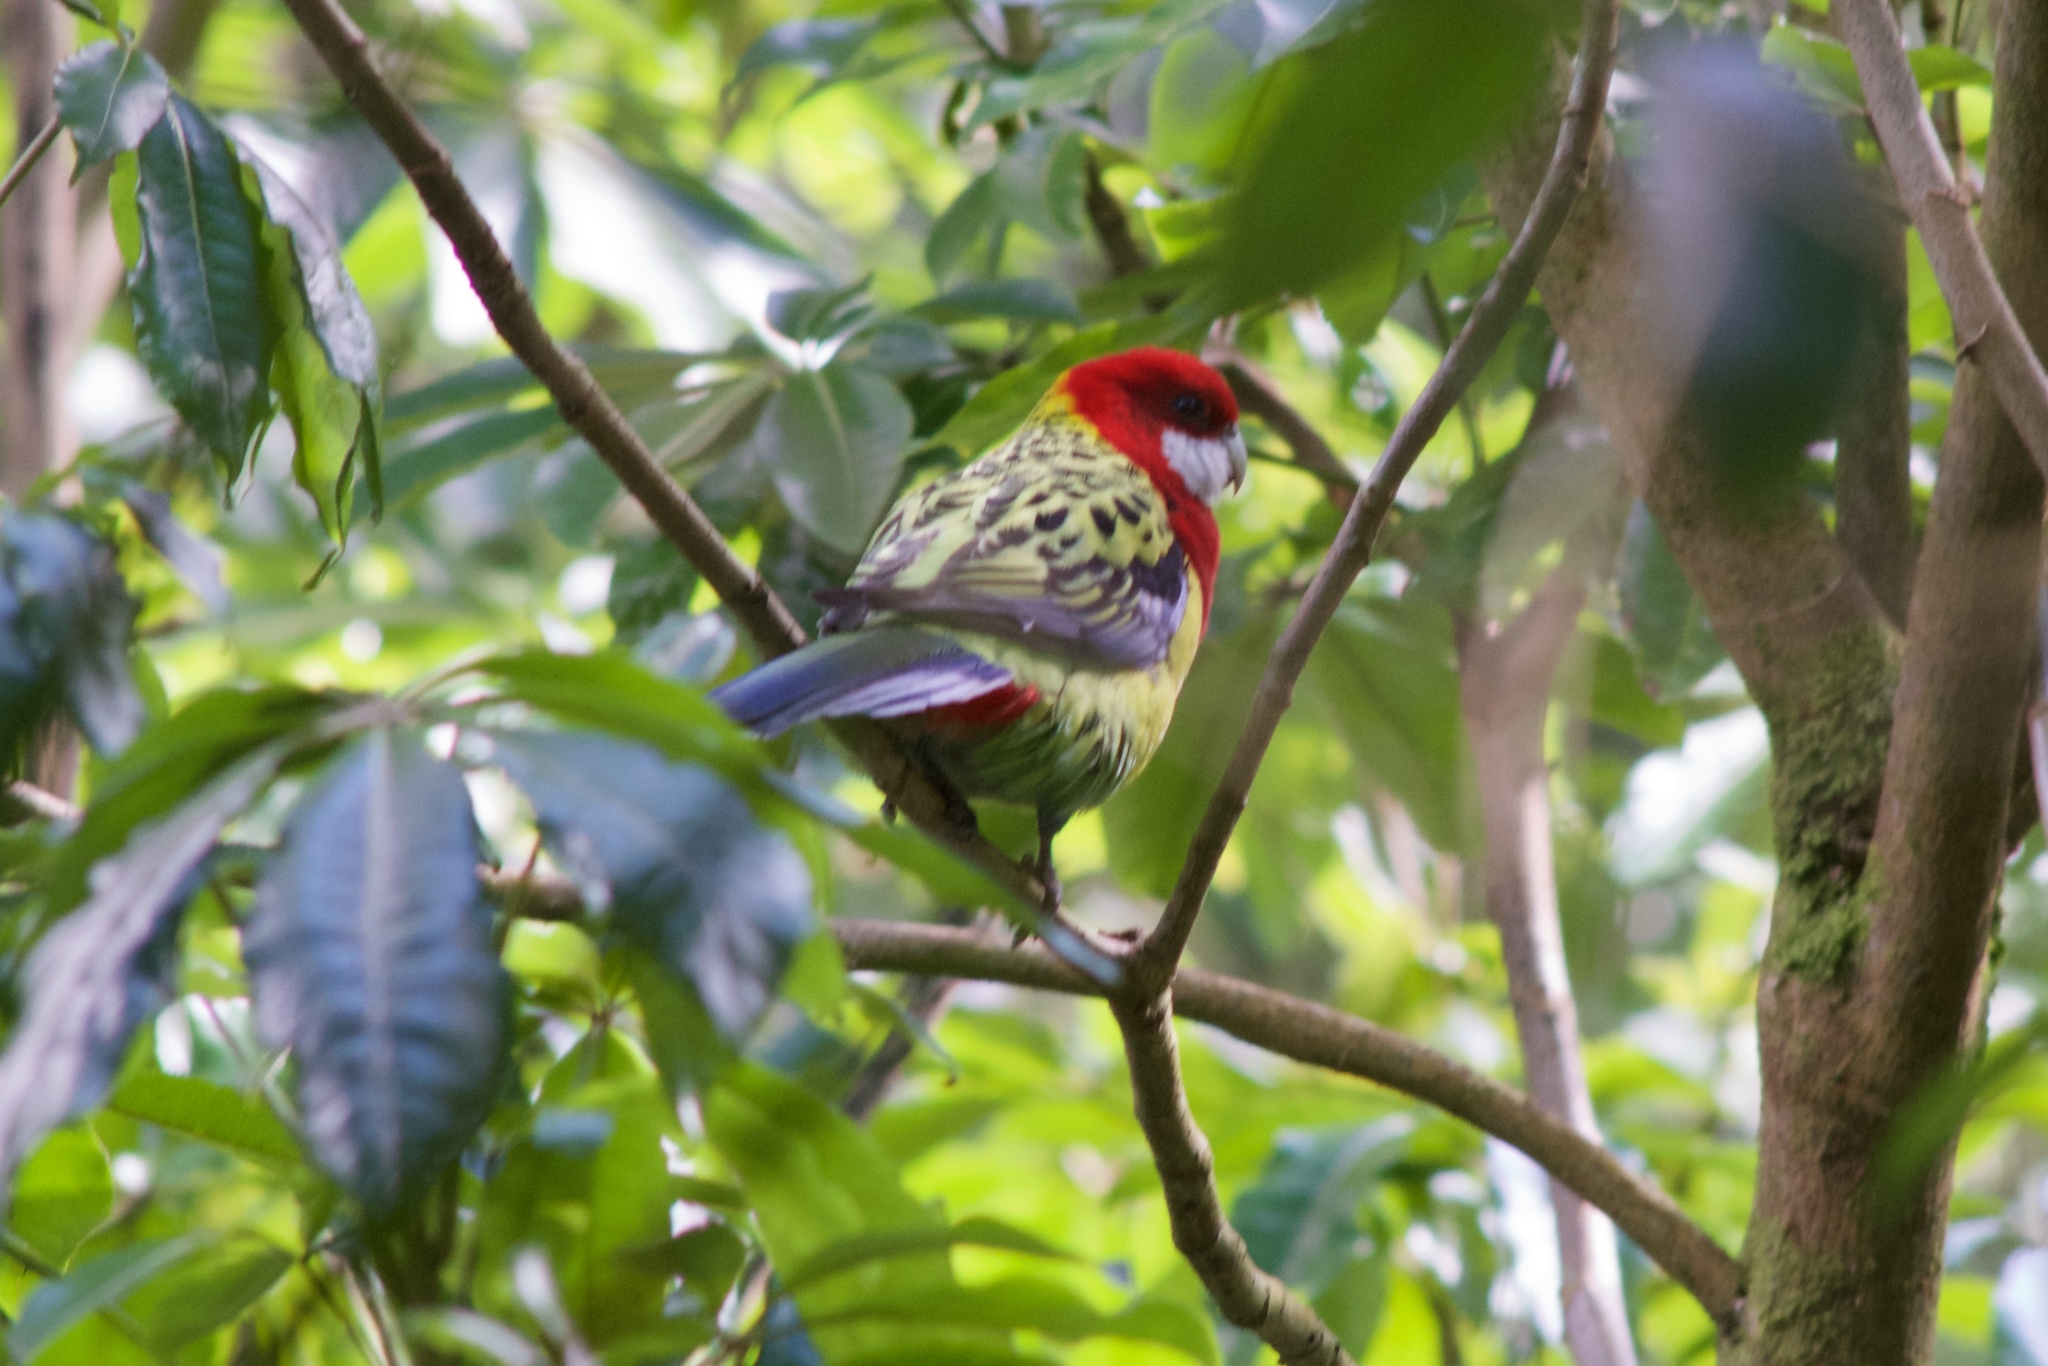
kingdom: Animalia
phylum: Chordata
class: Aves
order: Psittaciformes
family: Psittacidae
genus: Platycercus
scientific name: Platycercus eximius
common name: Eastern rosella
